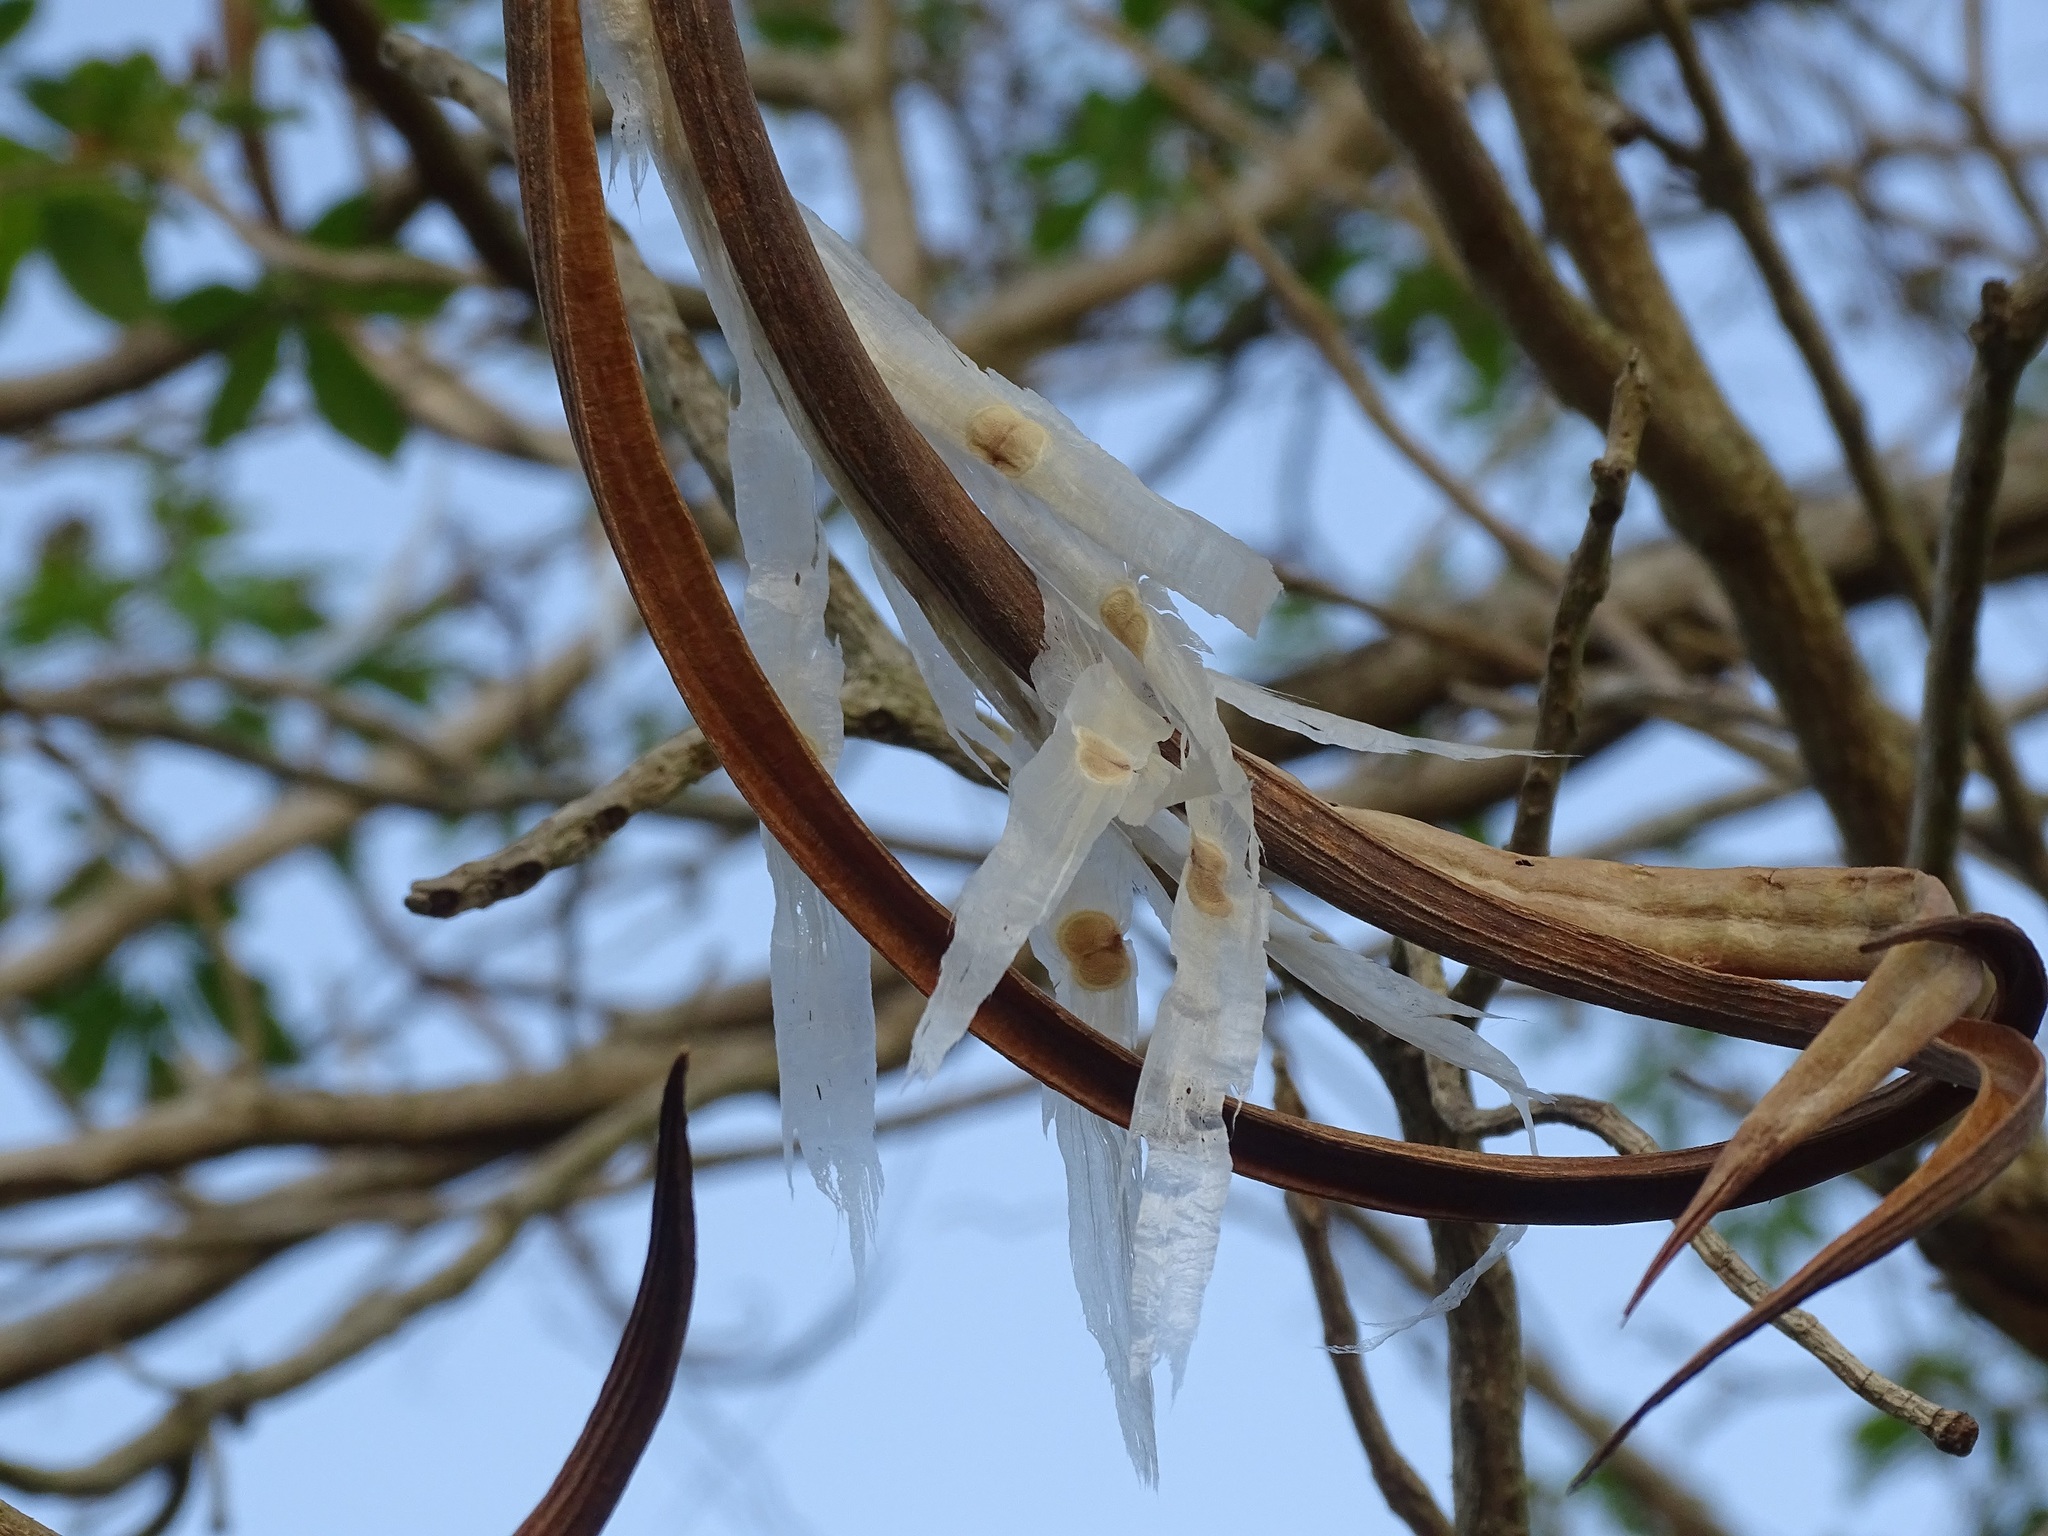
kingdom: Plantae
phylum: Tracheophyta
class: Magnoliopsida
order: Lamiales
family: Bignoniaceae
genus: Godmania
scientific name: Godmania aesculifolia
